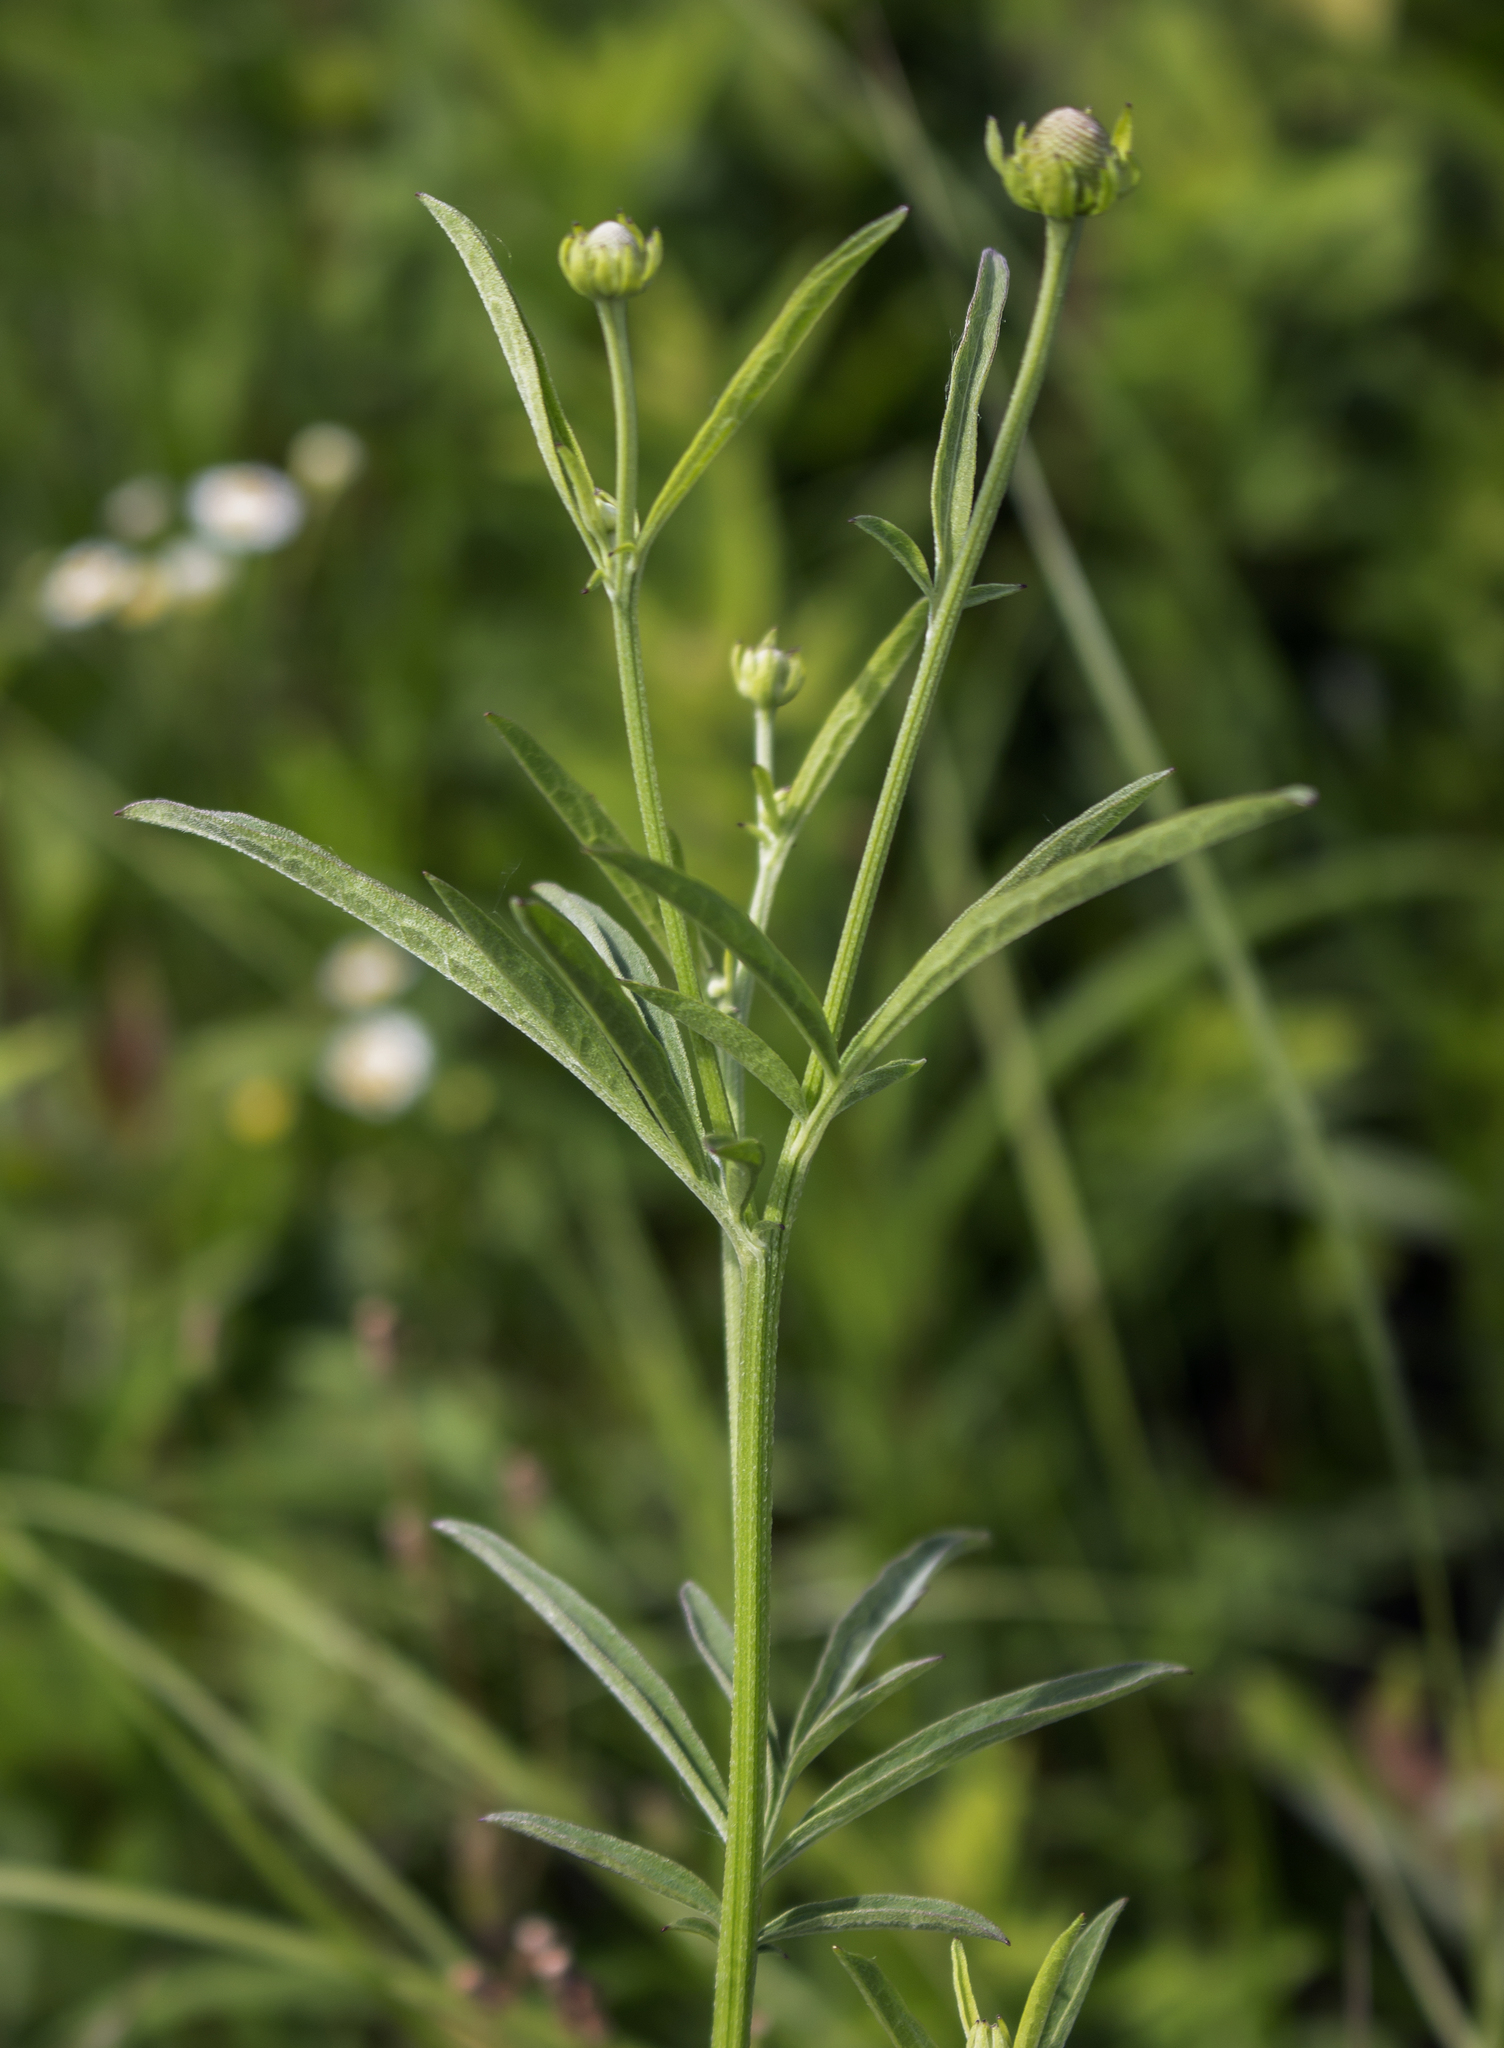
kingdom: Plantae
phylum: Tracheophyta
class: Magnoliopsida
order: Asterales
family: Asteraceae
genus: Ratibida
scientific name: Ratibida pinnata
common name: Drooping prairie-coneflower
